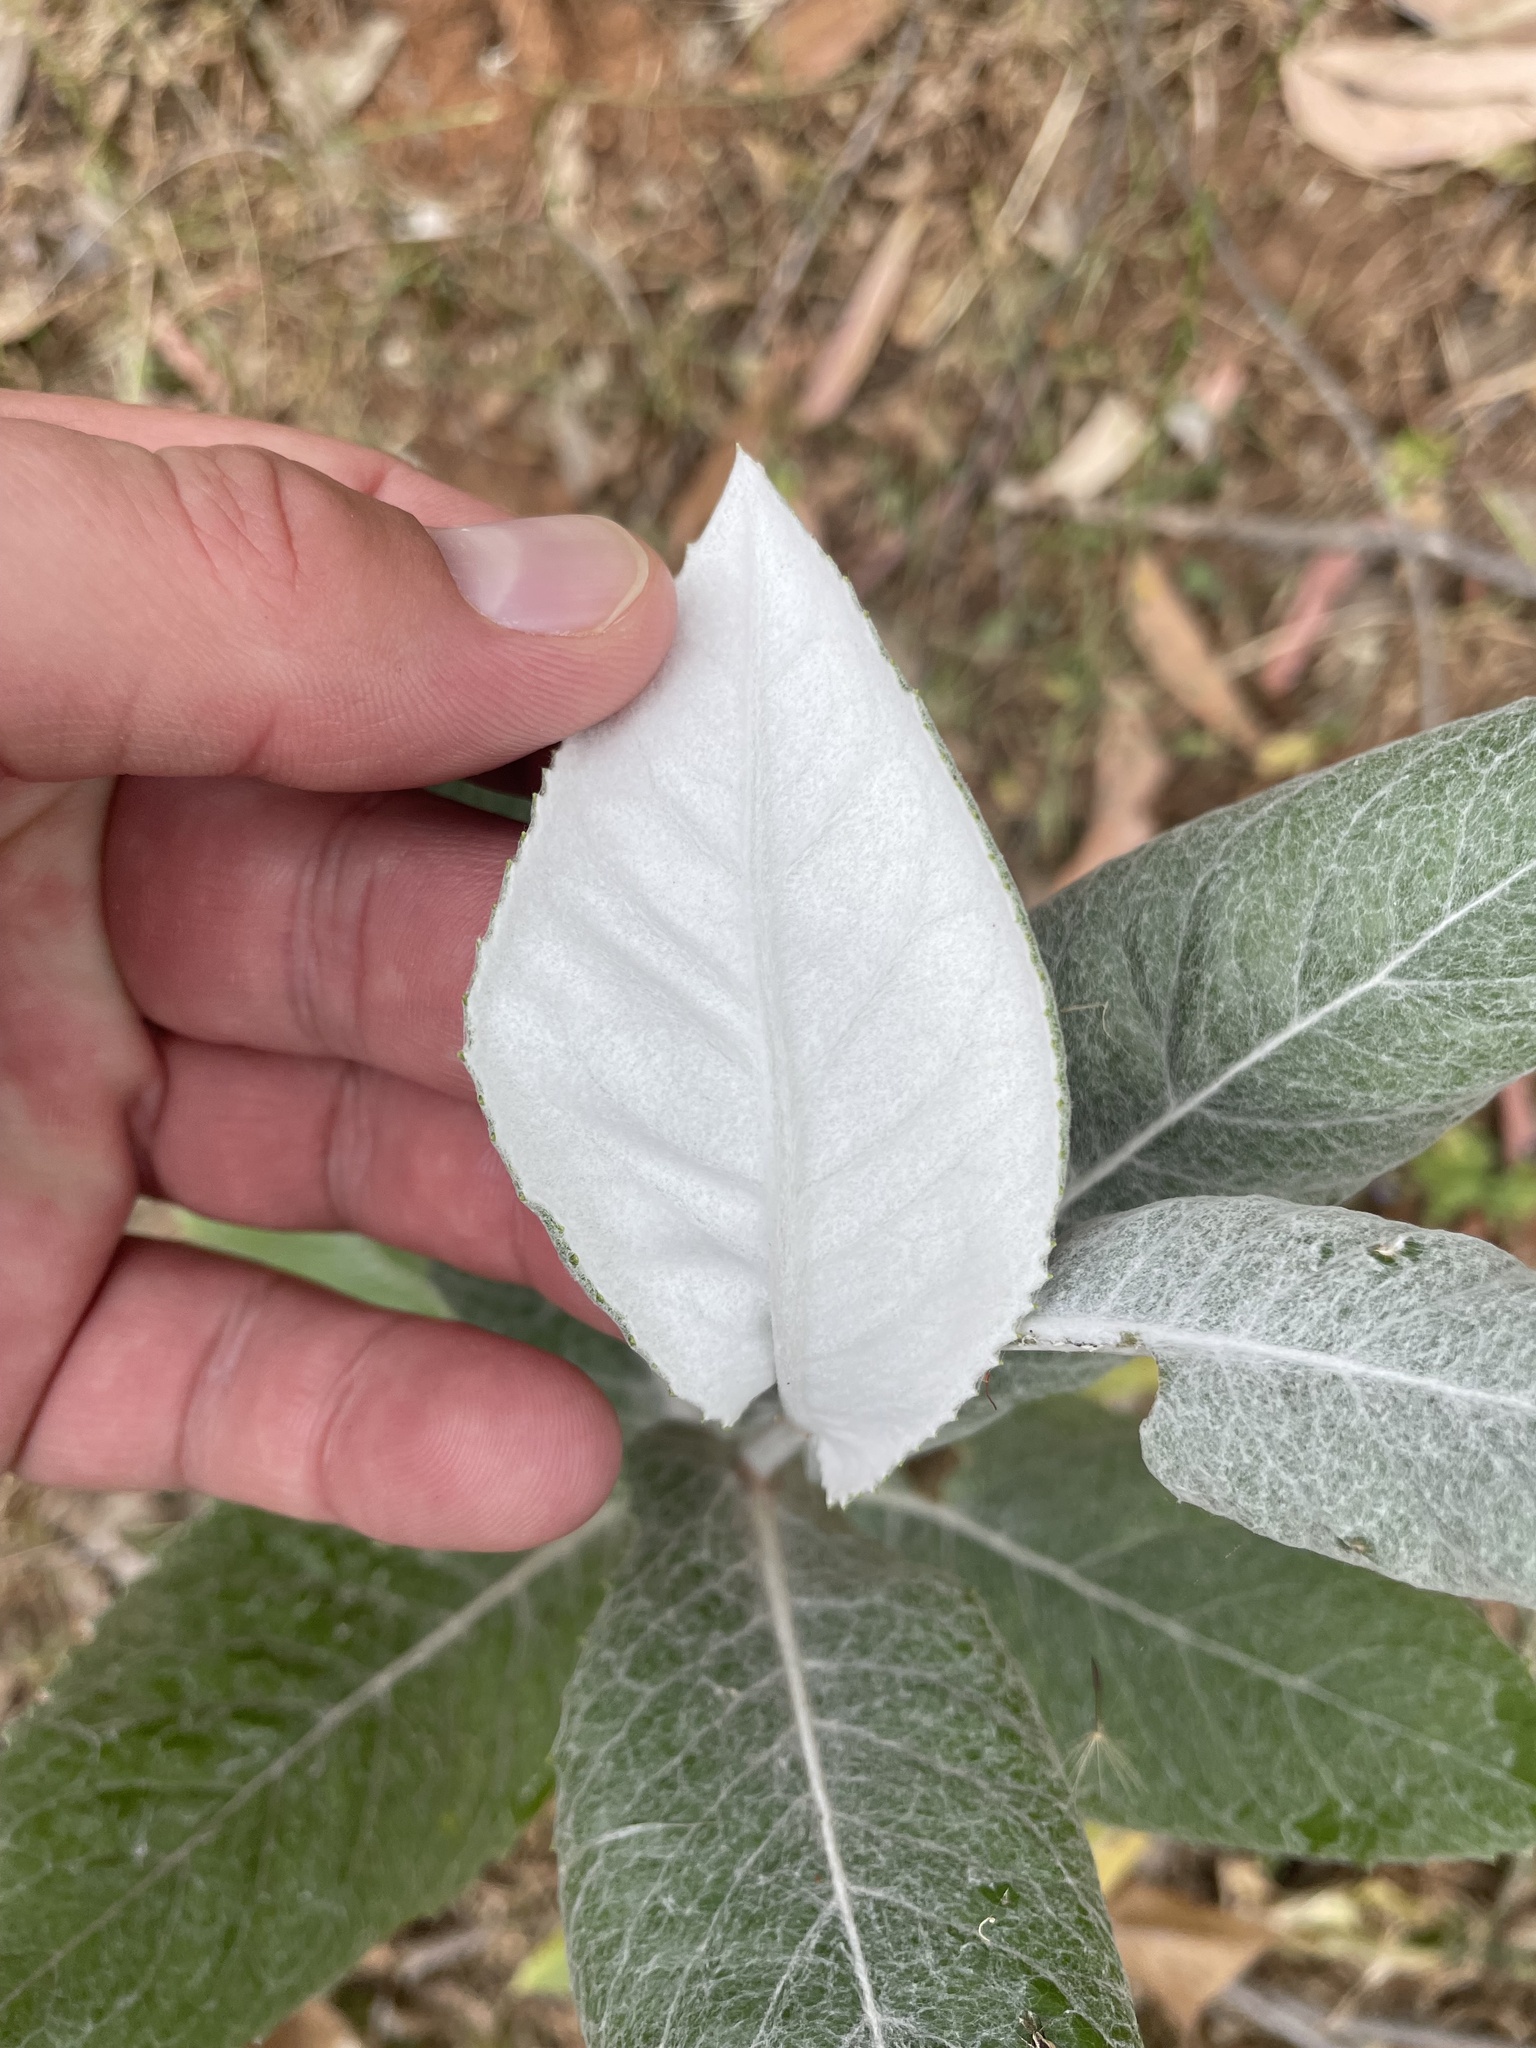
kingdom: Plantae
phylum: Tracheophyta
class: Magnoliopsida
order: Asterales
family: Asteraceae
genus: Senecio
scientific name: Senecio garlandii
